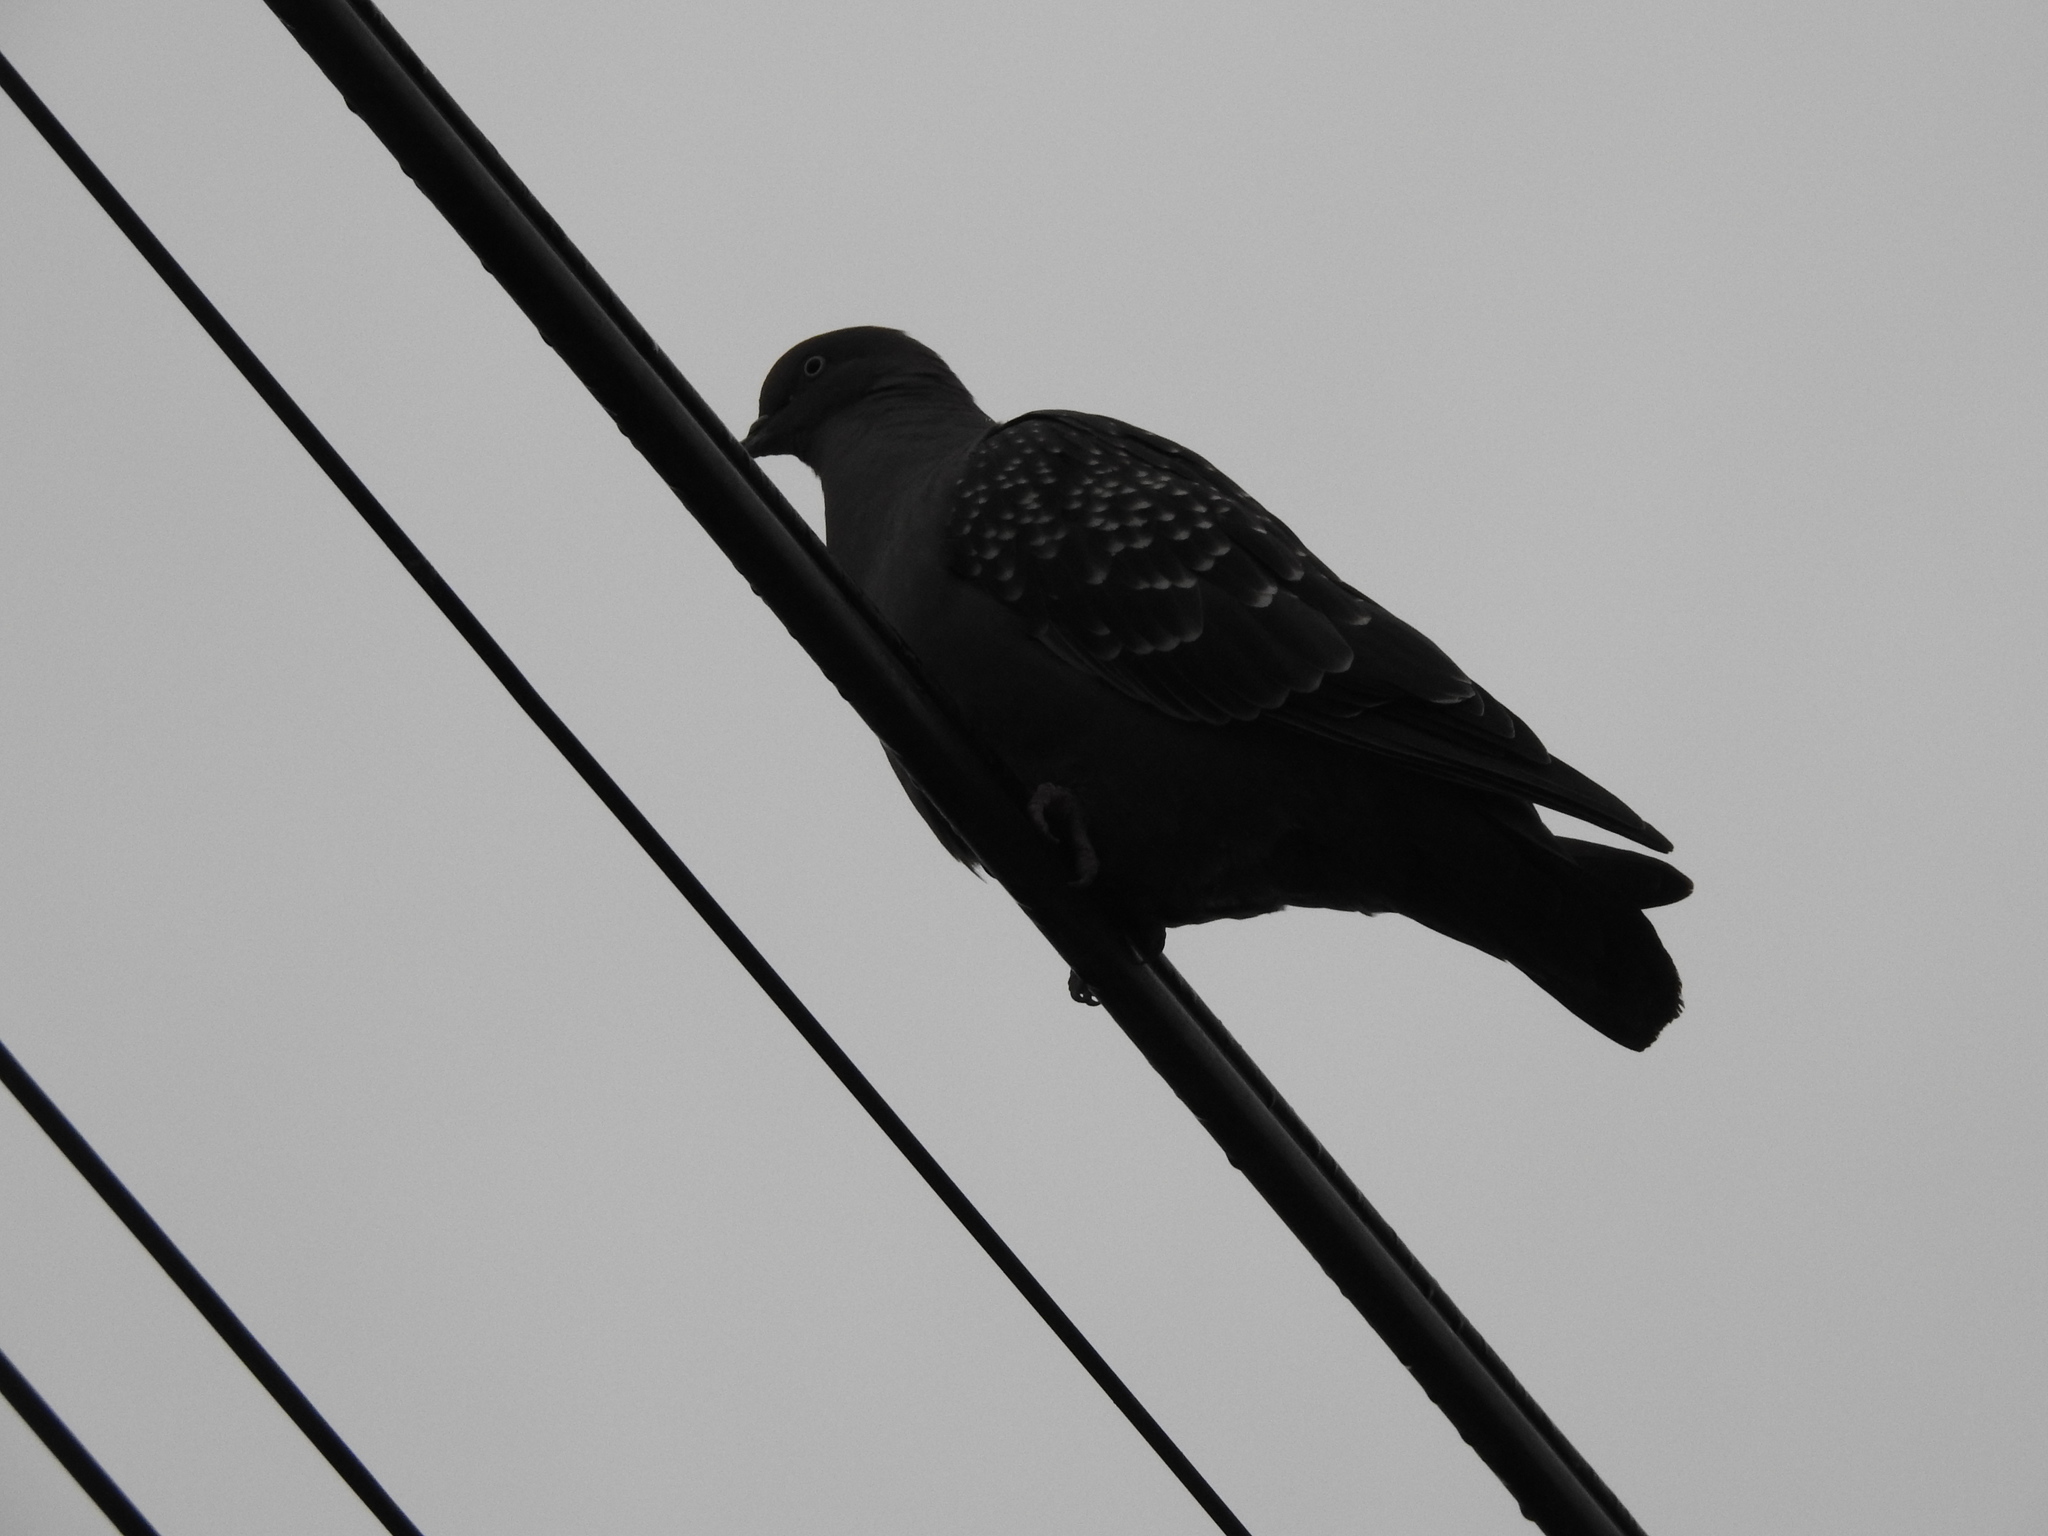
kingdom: Animalia
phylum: Chordata
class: Aves
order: Columbiformes
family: Columbidae
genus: Patagioenas
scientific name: Patagioenas maculosa
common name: Spot-winged pigeon
